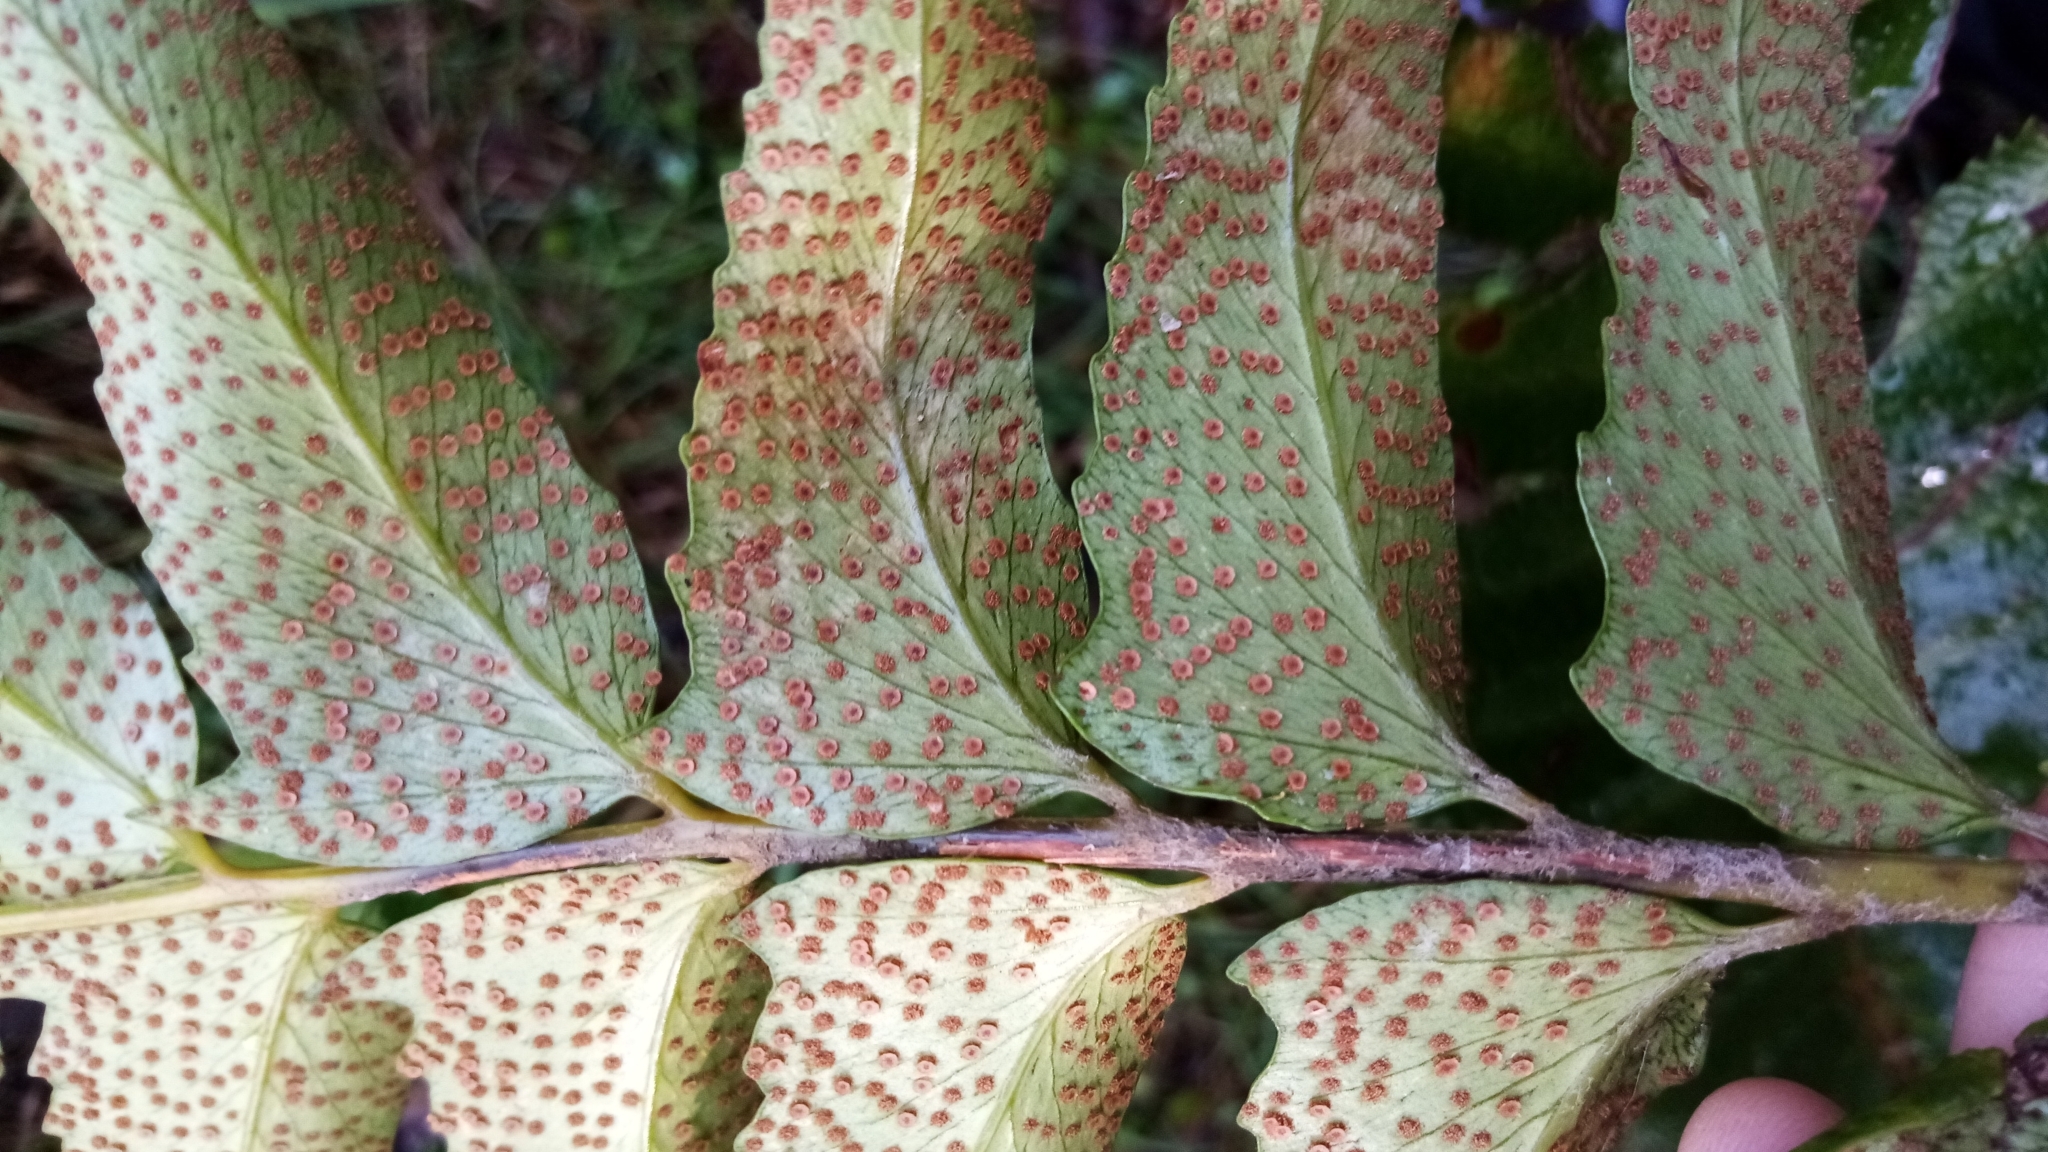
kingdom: Plantae
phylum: Tracheophyta
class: Polypodiopsida
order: Polypodiales
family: Dryopteridaceae
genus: Cyrtomium
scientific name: Cyrtomium falcatum
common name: House holly-fern
